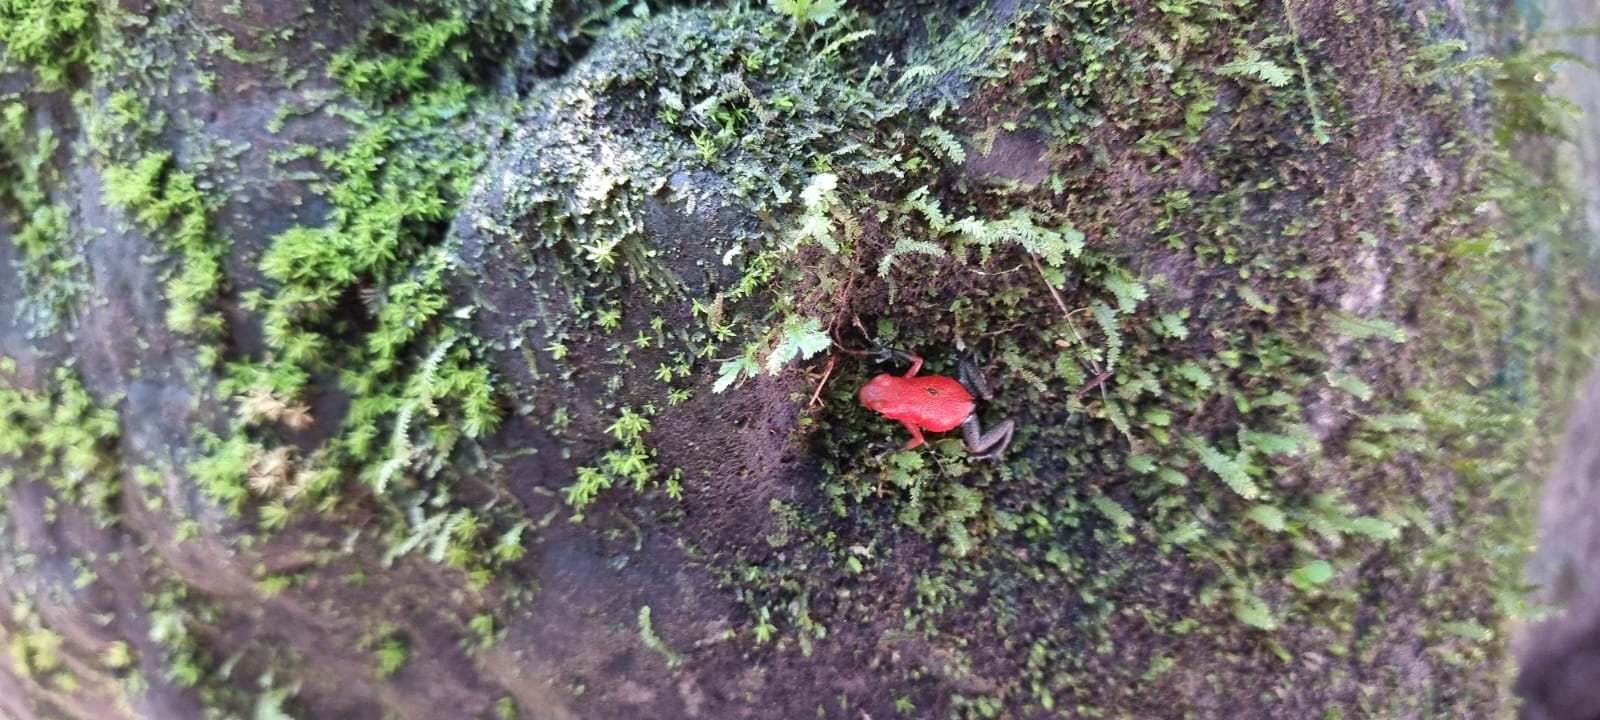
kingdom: Animalia
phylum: Chordata
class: Amphibia
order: Anura
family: Dendrobatidae
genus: Oophaga
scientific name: Oophaga pumilio
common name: Flaming poison frog
